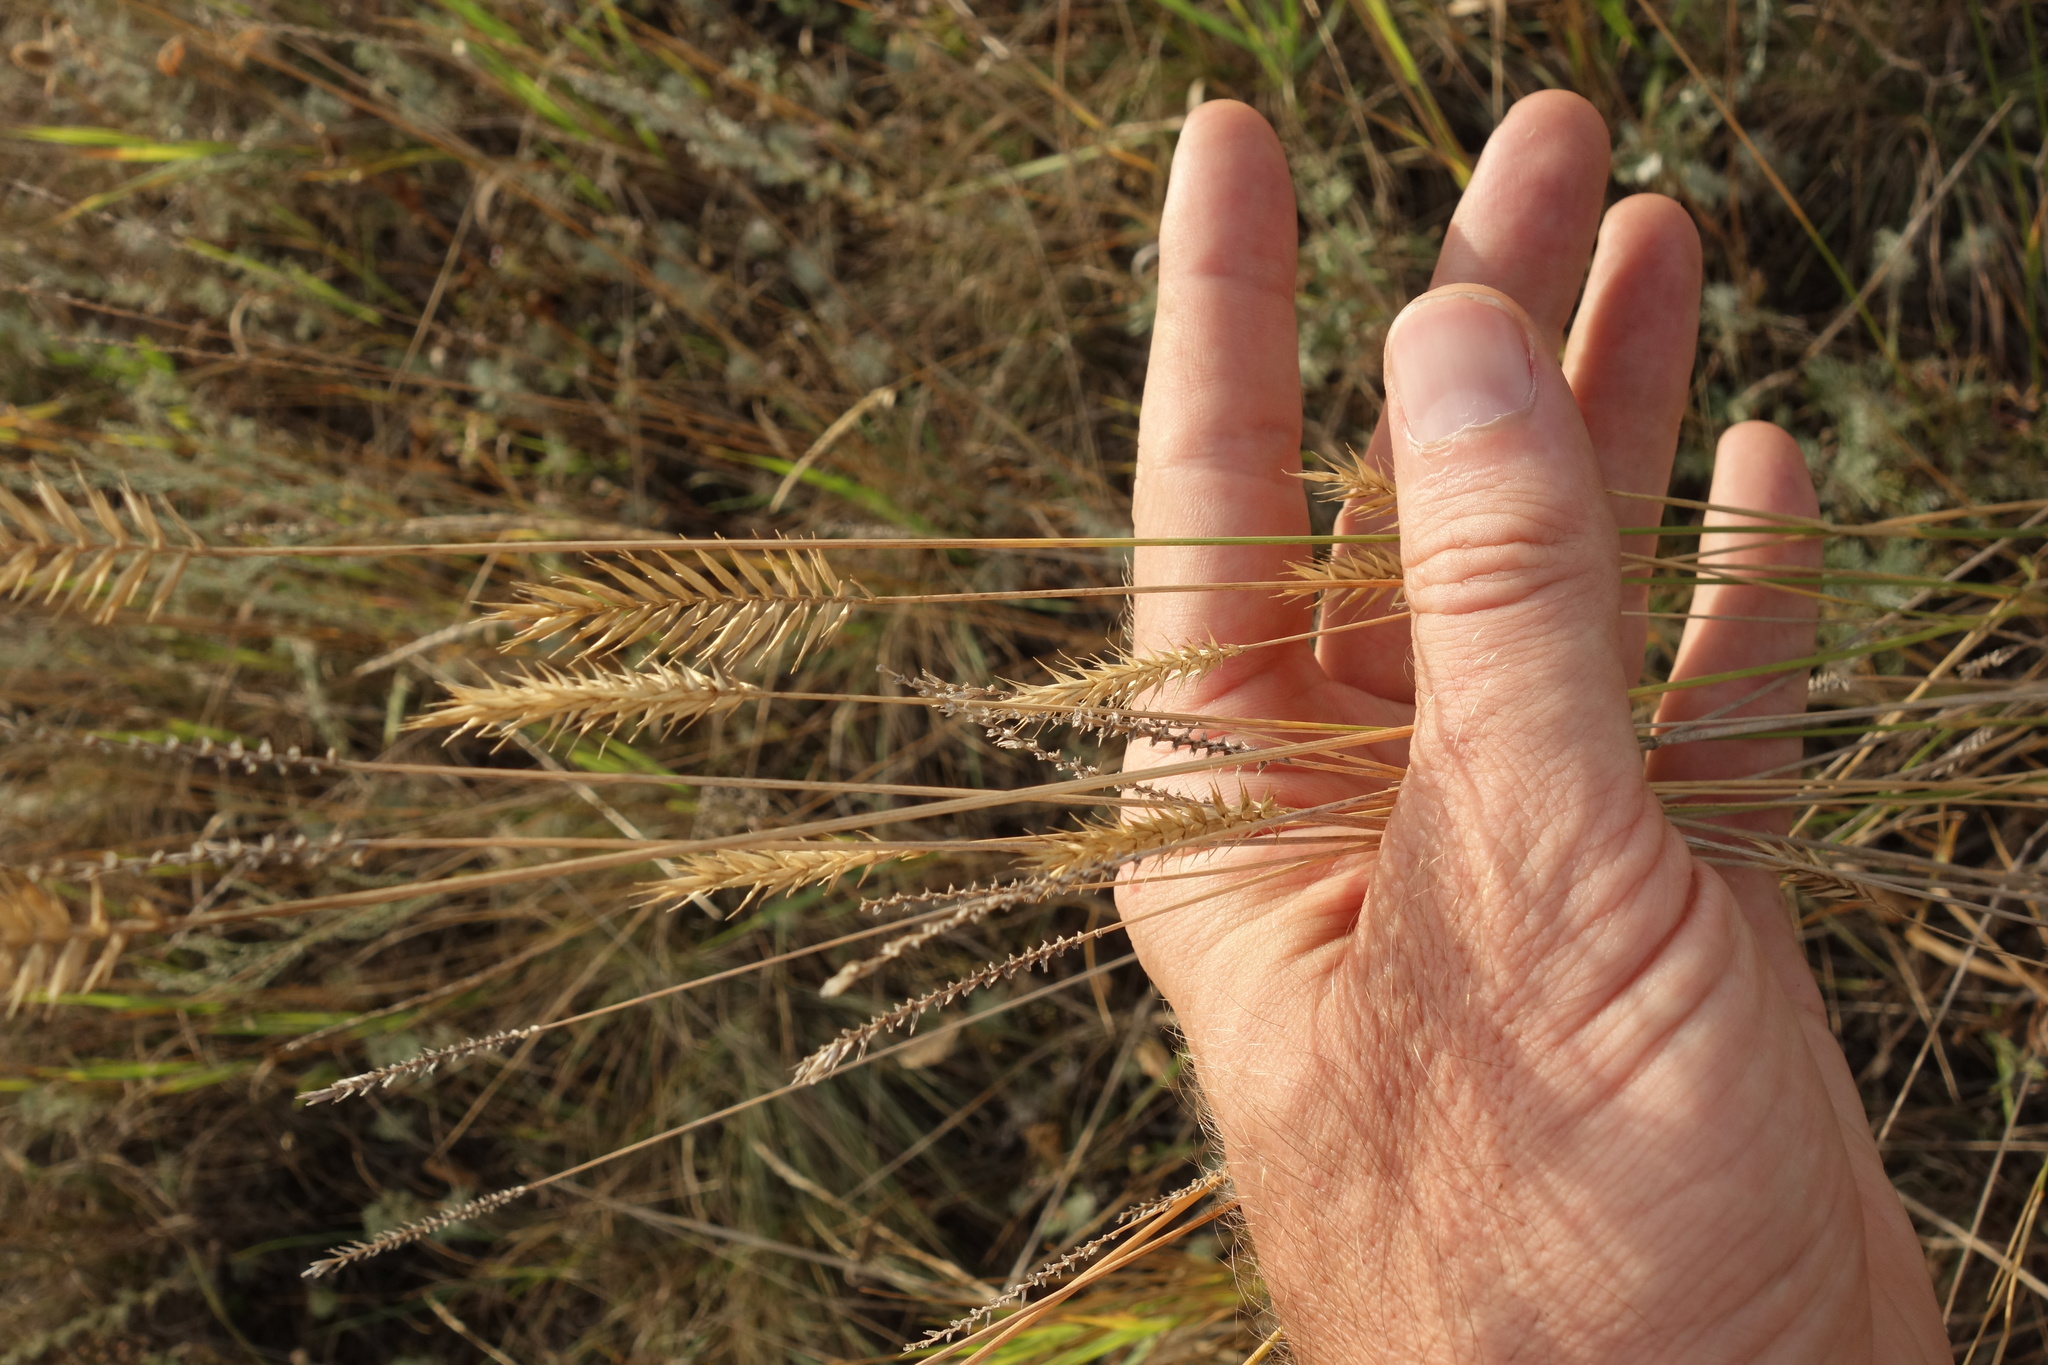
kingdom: Plantae
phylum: Tracheophyta
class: Liliopsida
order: Poales
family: Poaceae
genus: Agropyron
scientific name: Agropyron cristatum
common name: Crested wheatgrass
